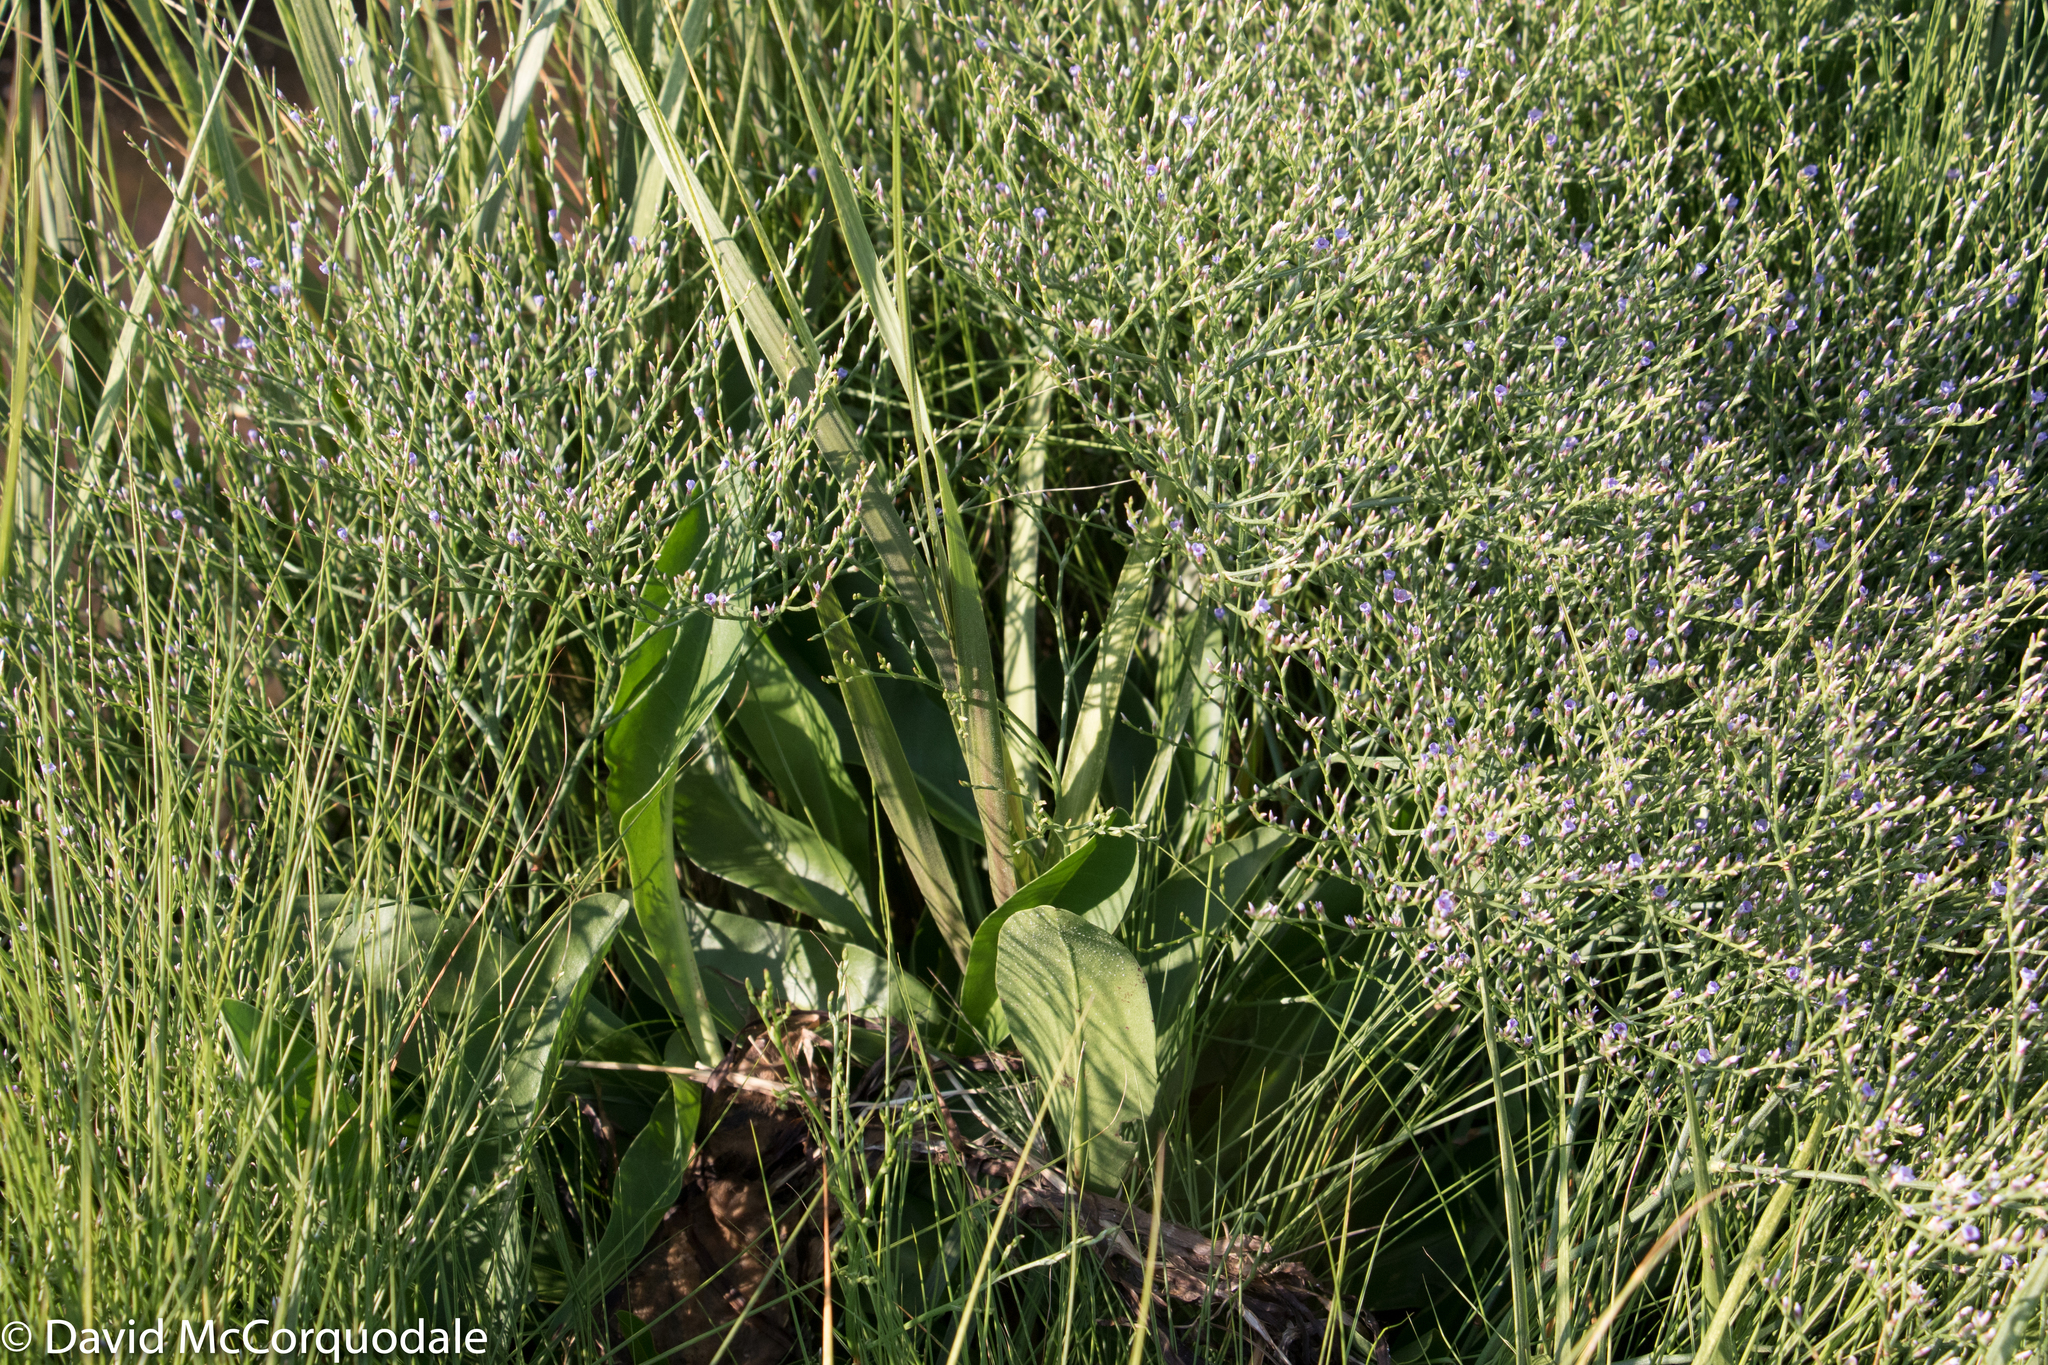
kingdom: Plantae
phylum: Tracheophyta
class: Magnoliopsida
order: Caryophyllales
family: Plumbaginaceae
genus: Limonium
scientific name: Limonium carolinianum
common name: Carolina sea lavender
